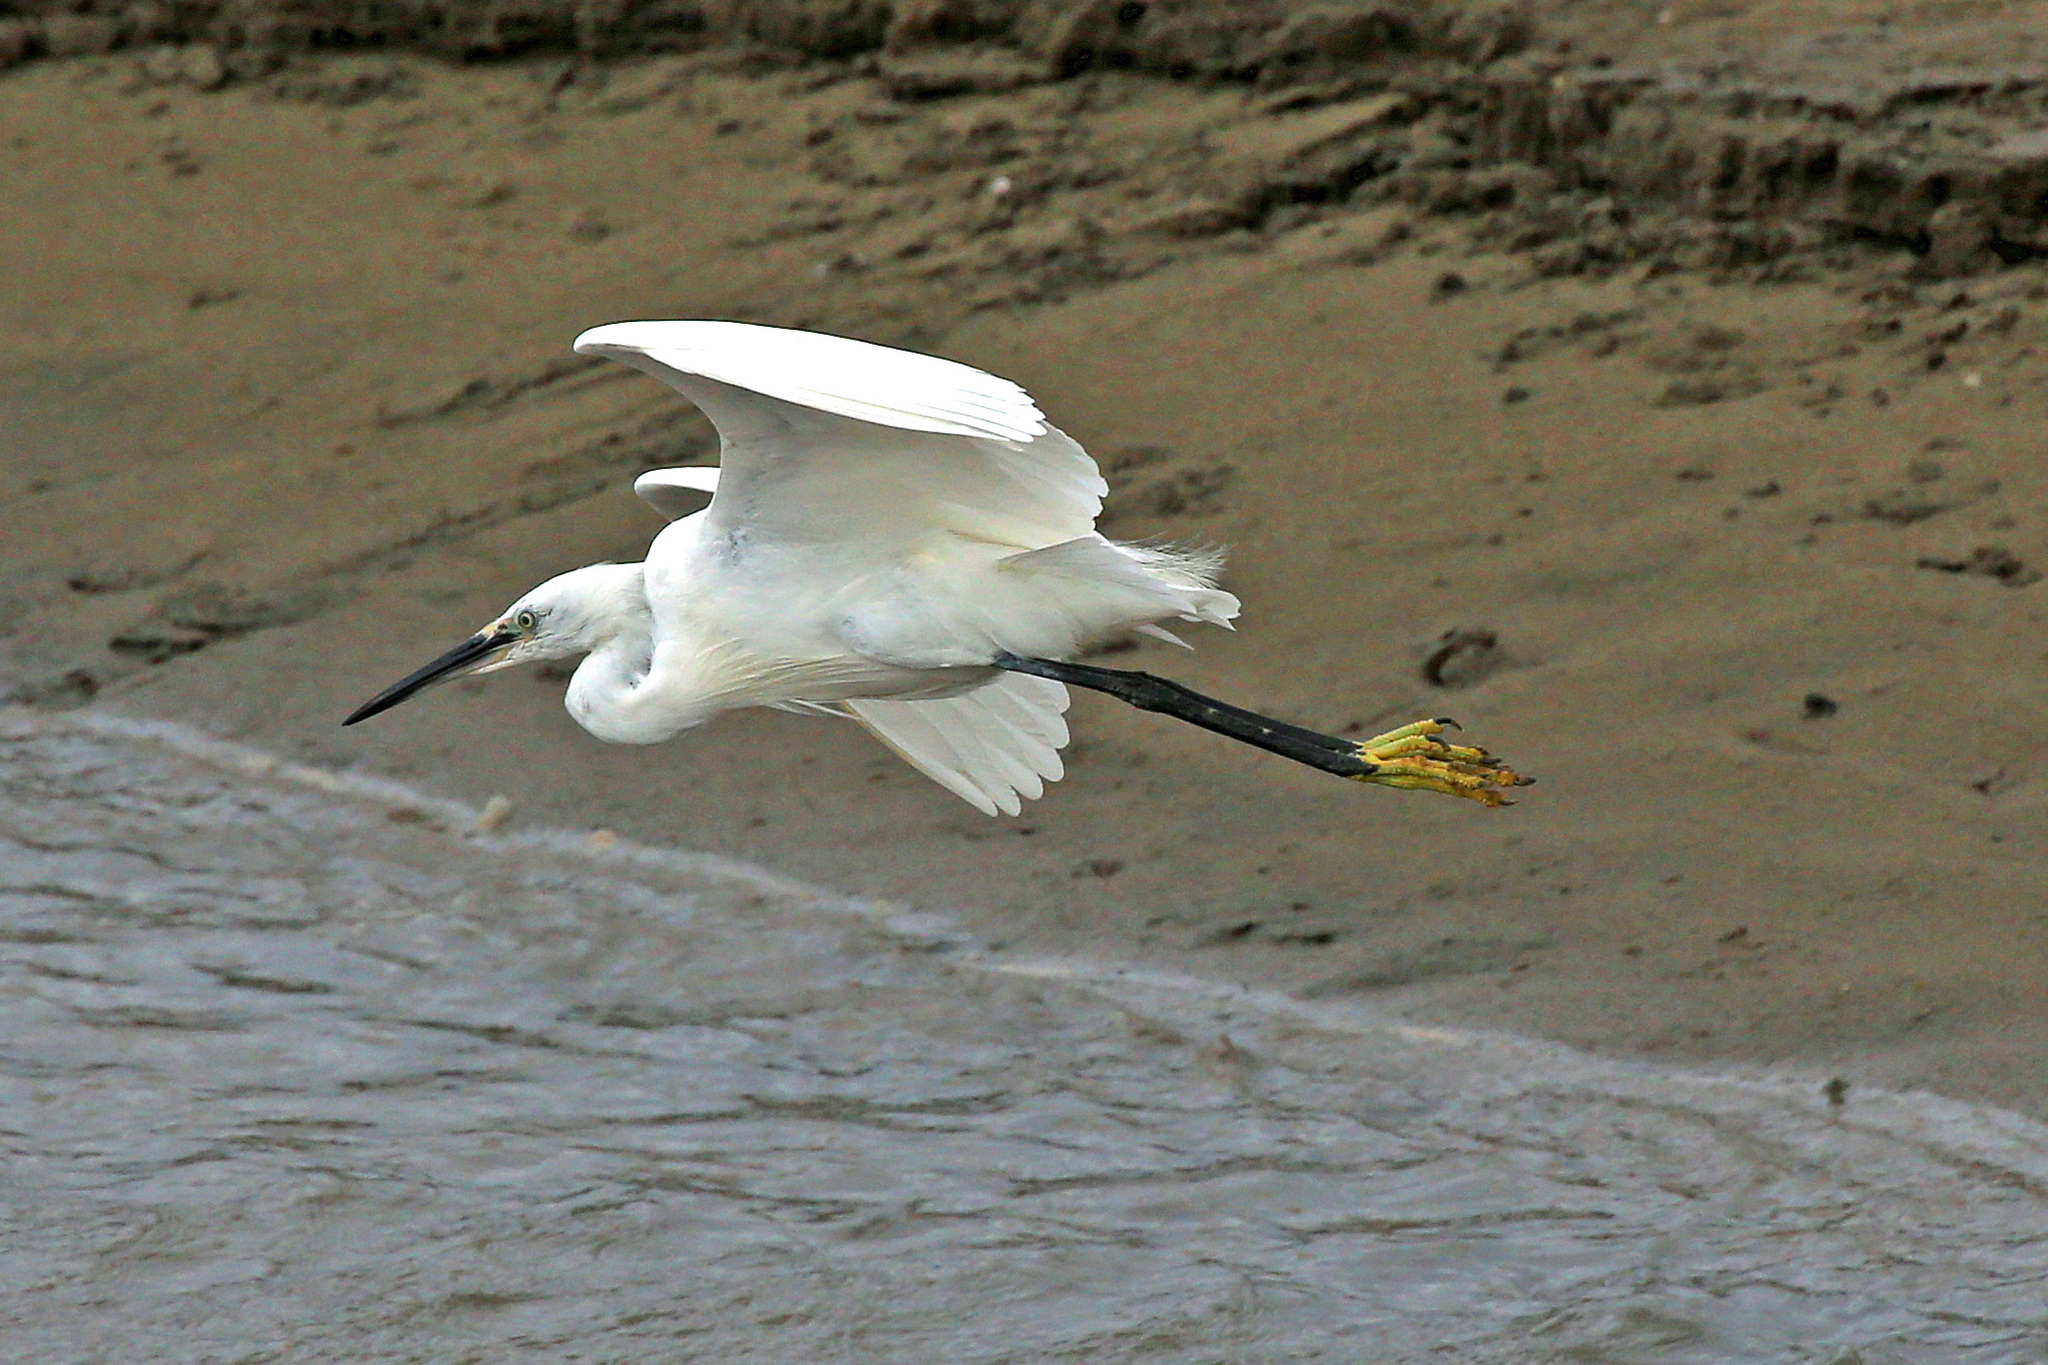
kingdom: Animalia
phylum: Chordata
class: Aves
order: Pelecaniformes
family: Ardeidae
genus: Egretta
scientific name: Egretta garzetta
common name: Little egret
